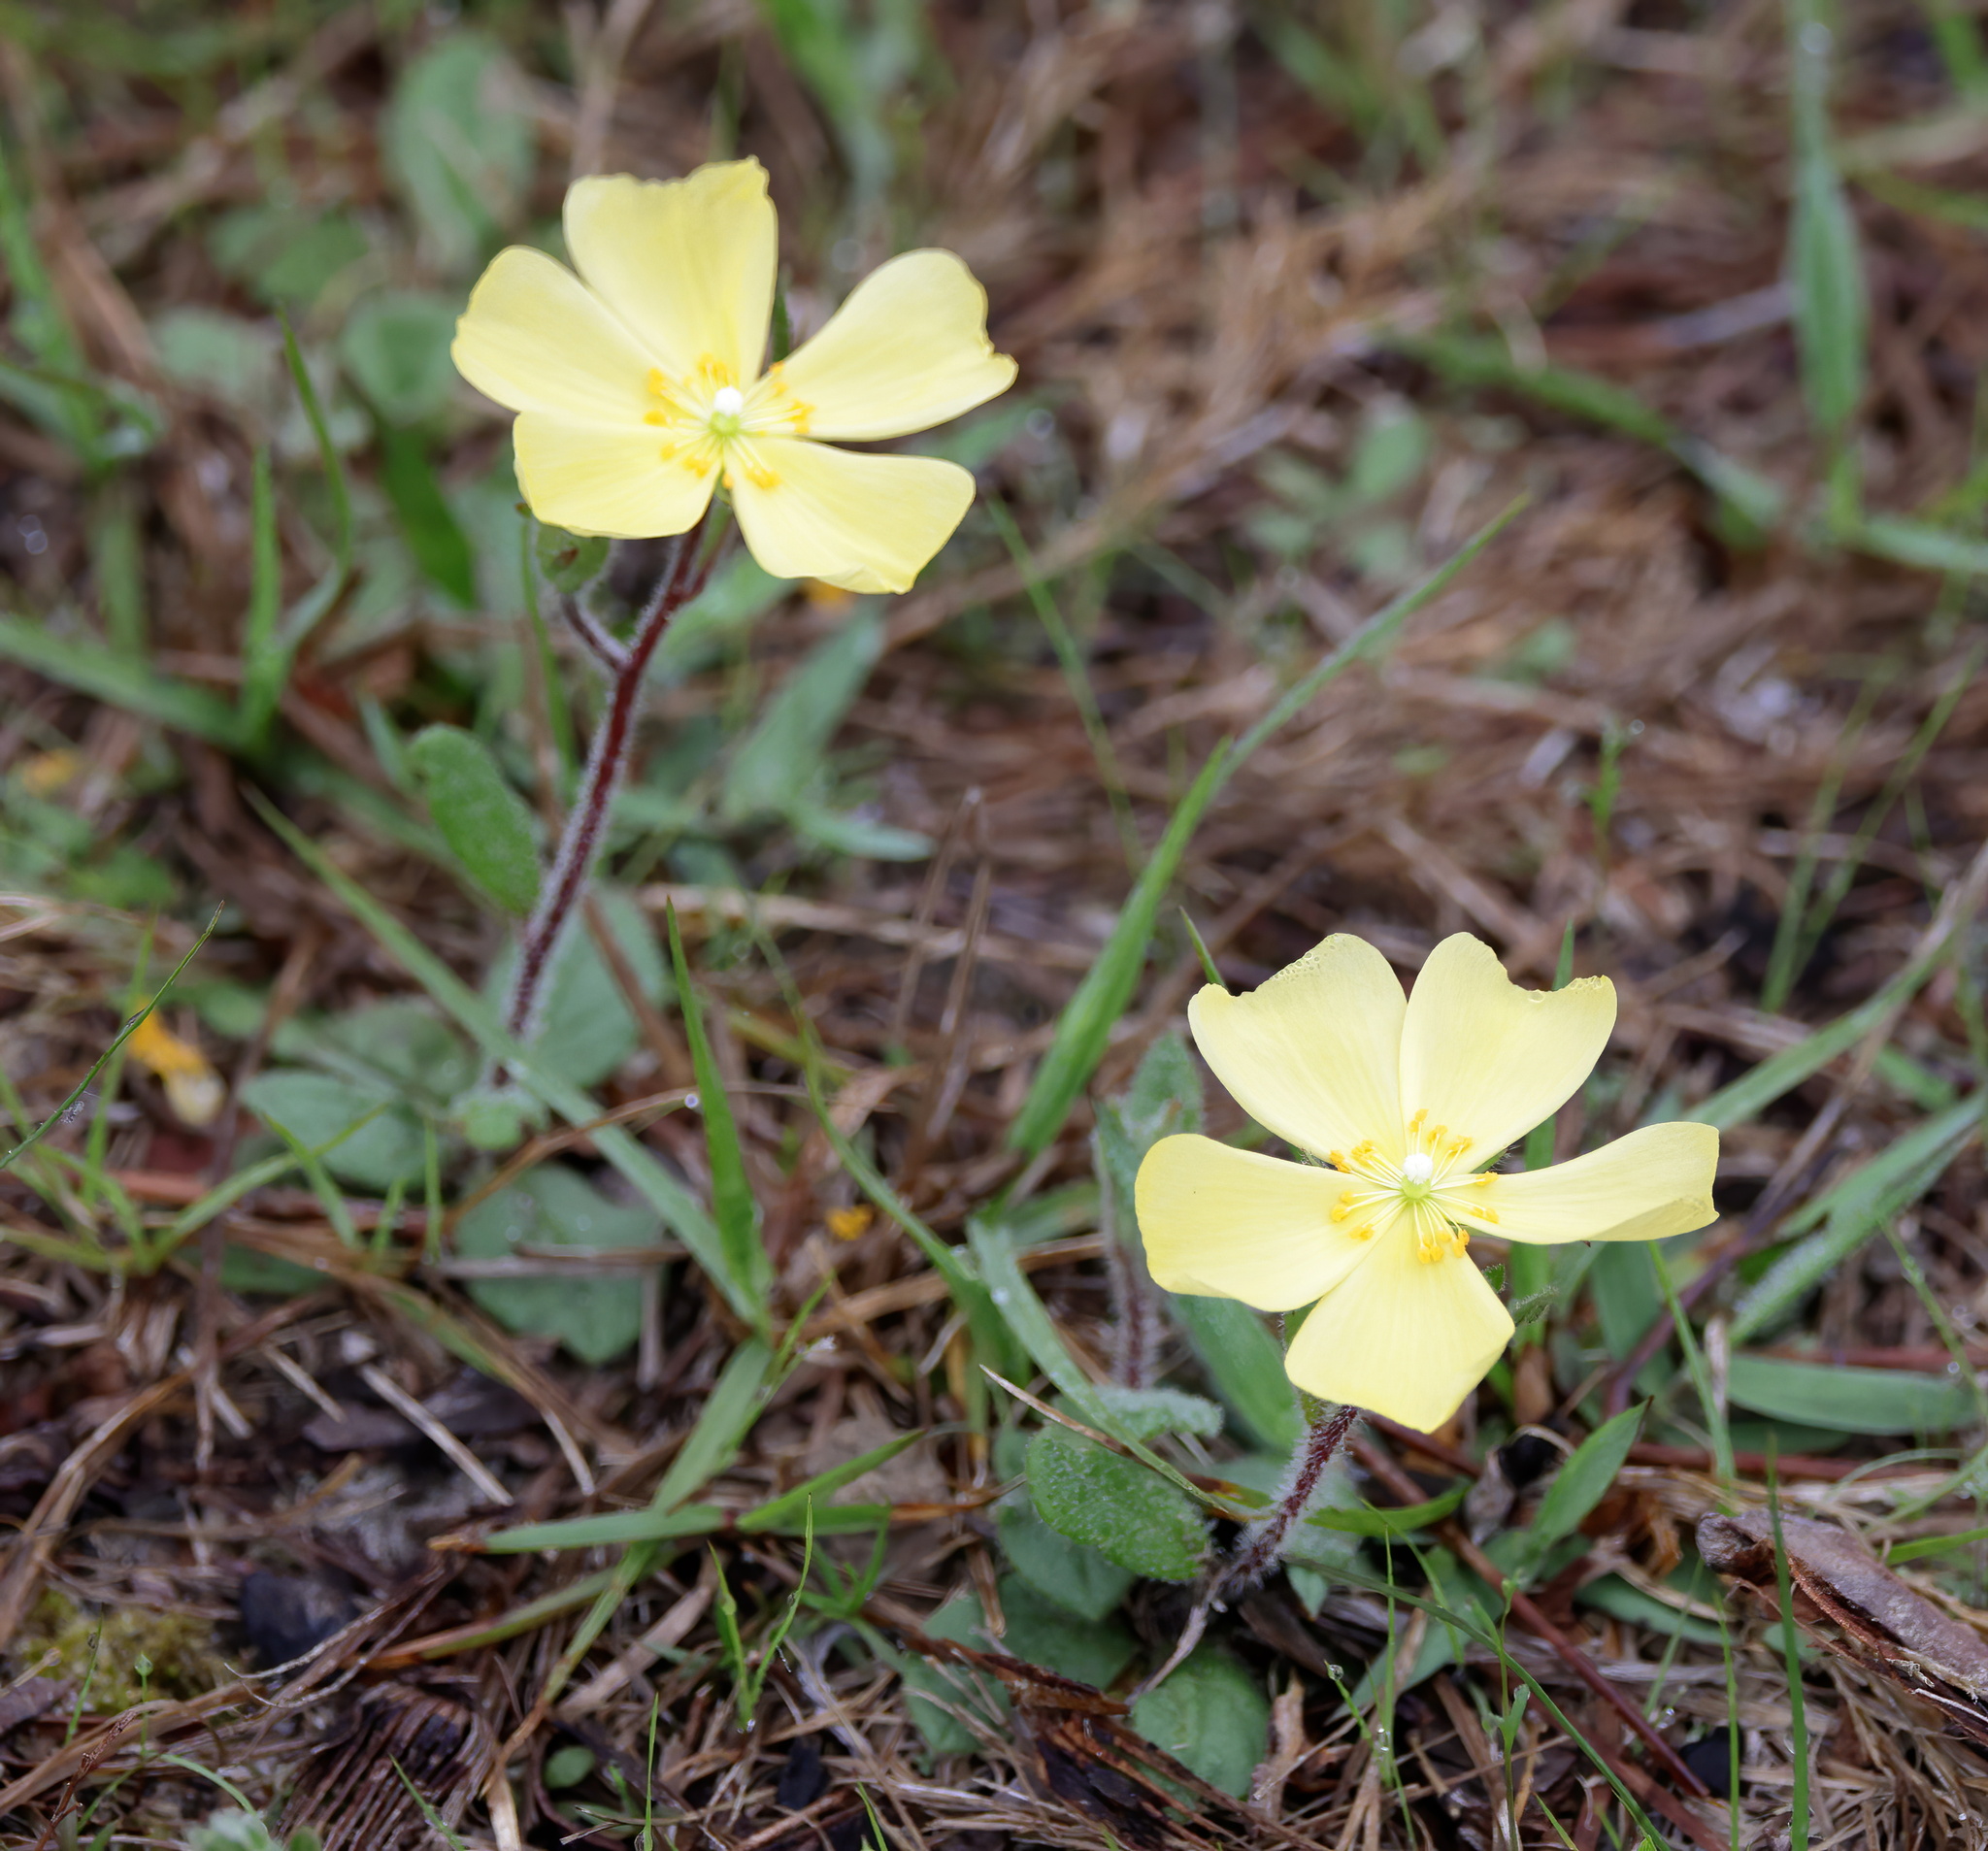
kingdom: Plantae
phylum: Tracheophyta
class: Magnoliopsida
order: Malvales
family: Cistaceae
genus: Crocanthemum
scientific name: Crocanthemum carolinianum
